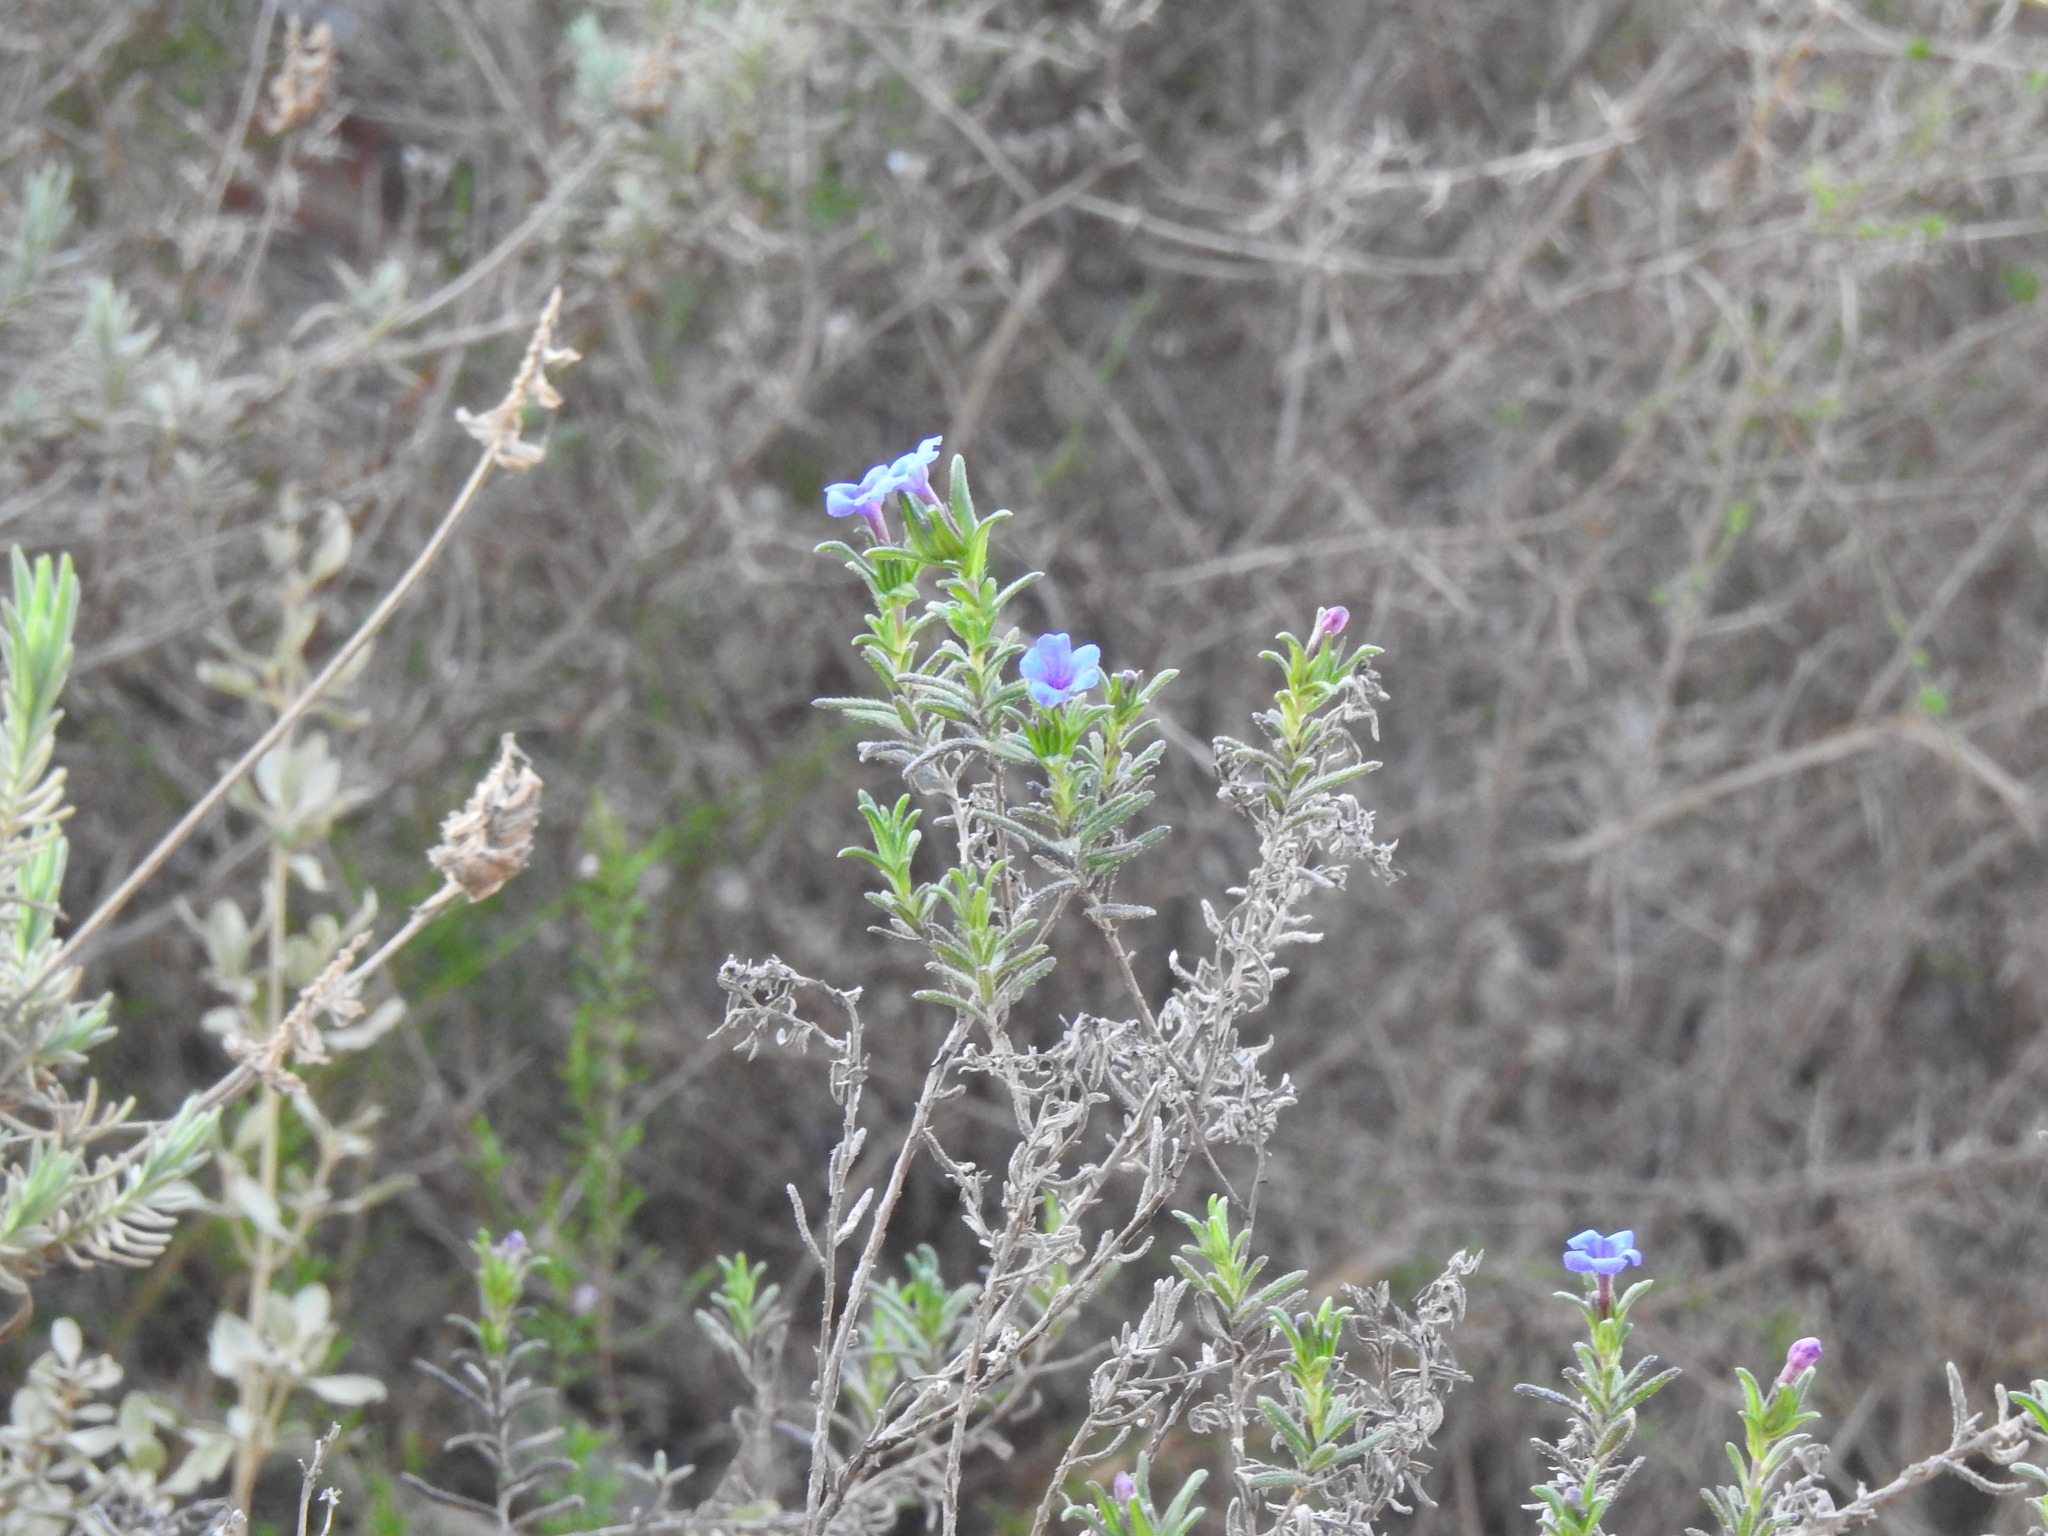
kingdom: Plantae
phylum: Tracheophyta
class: Magnoliopsida
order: Boraginales
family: Boraginaceae
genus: Glandora
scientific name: Glandora prostrata
